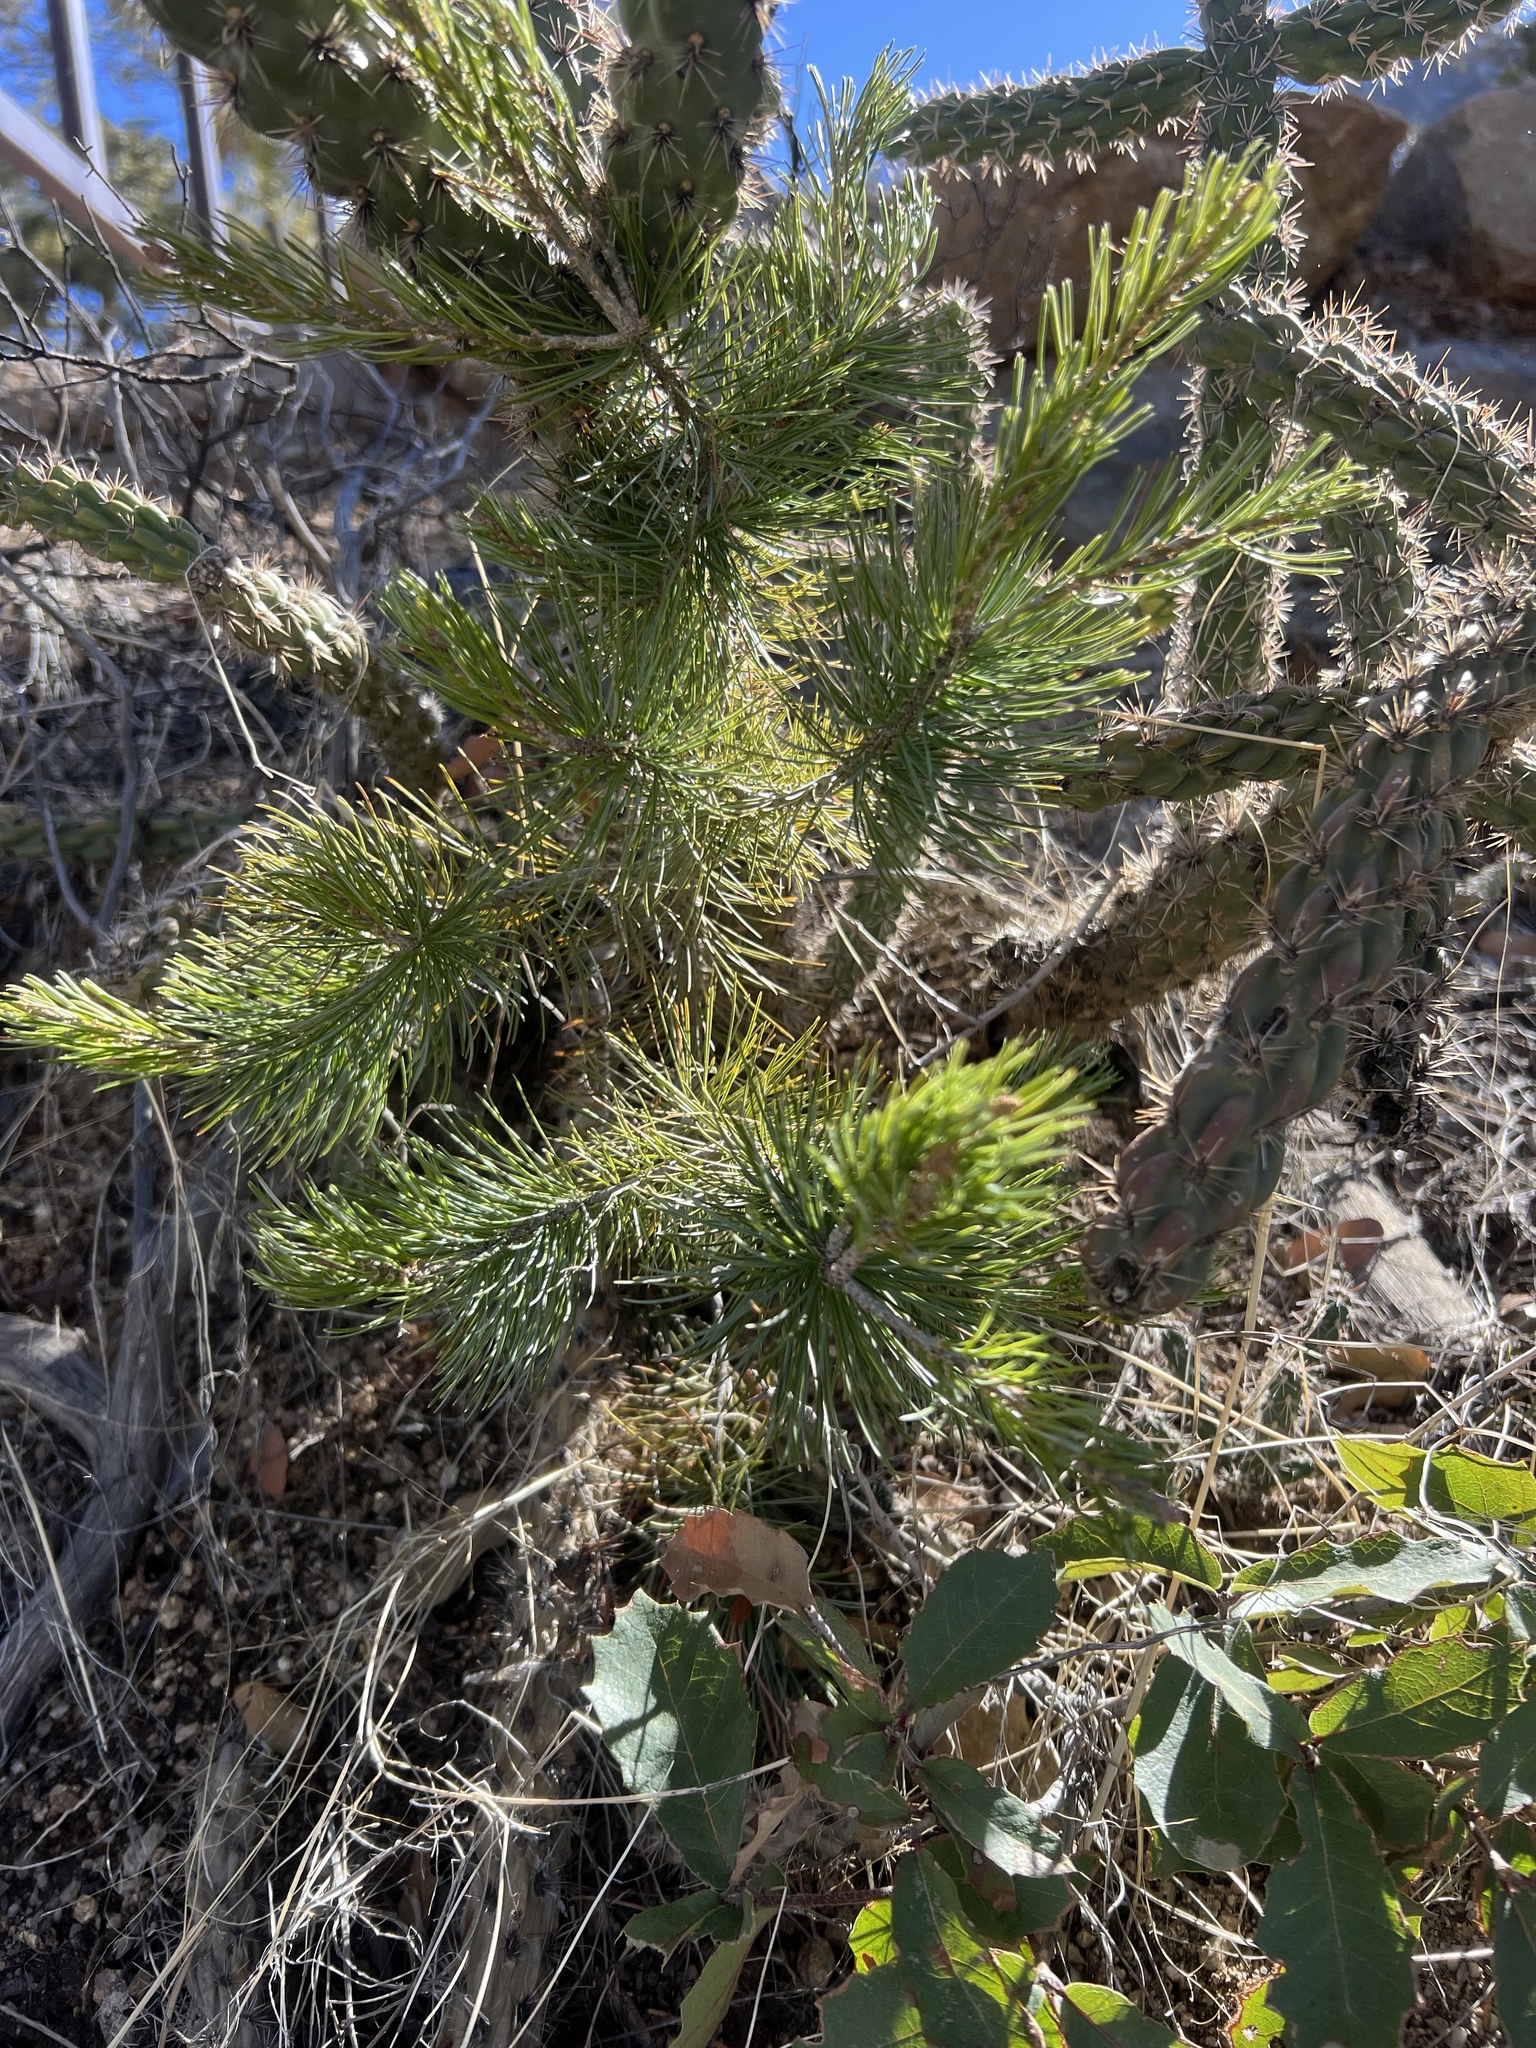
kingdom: Plantae
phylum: Tracheophyta
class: Pinopsida
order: Pinales
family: Pinaceae
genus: Pinus
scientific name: Pinus discolor
